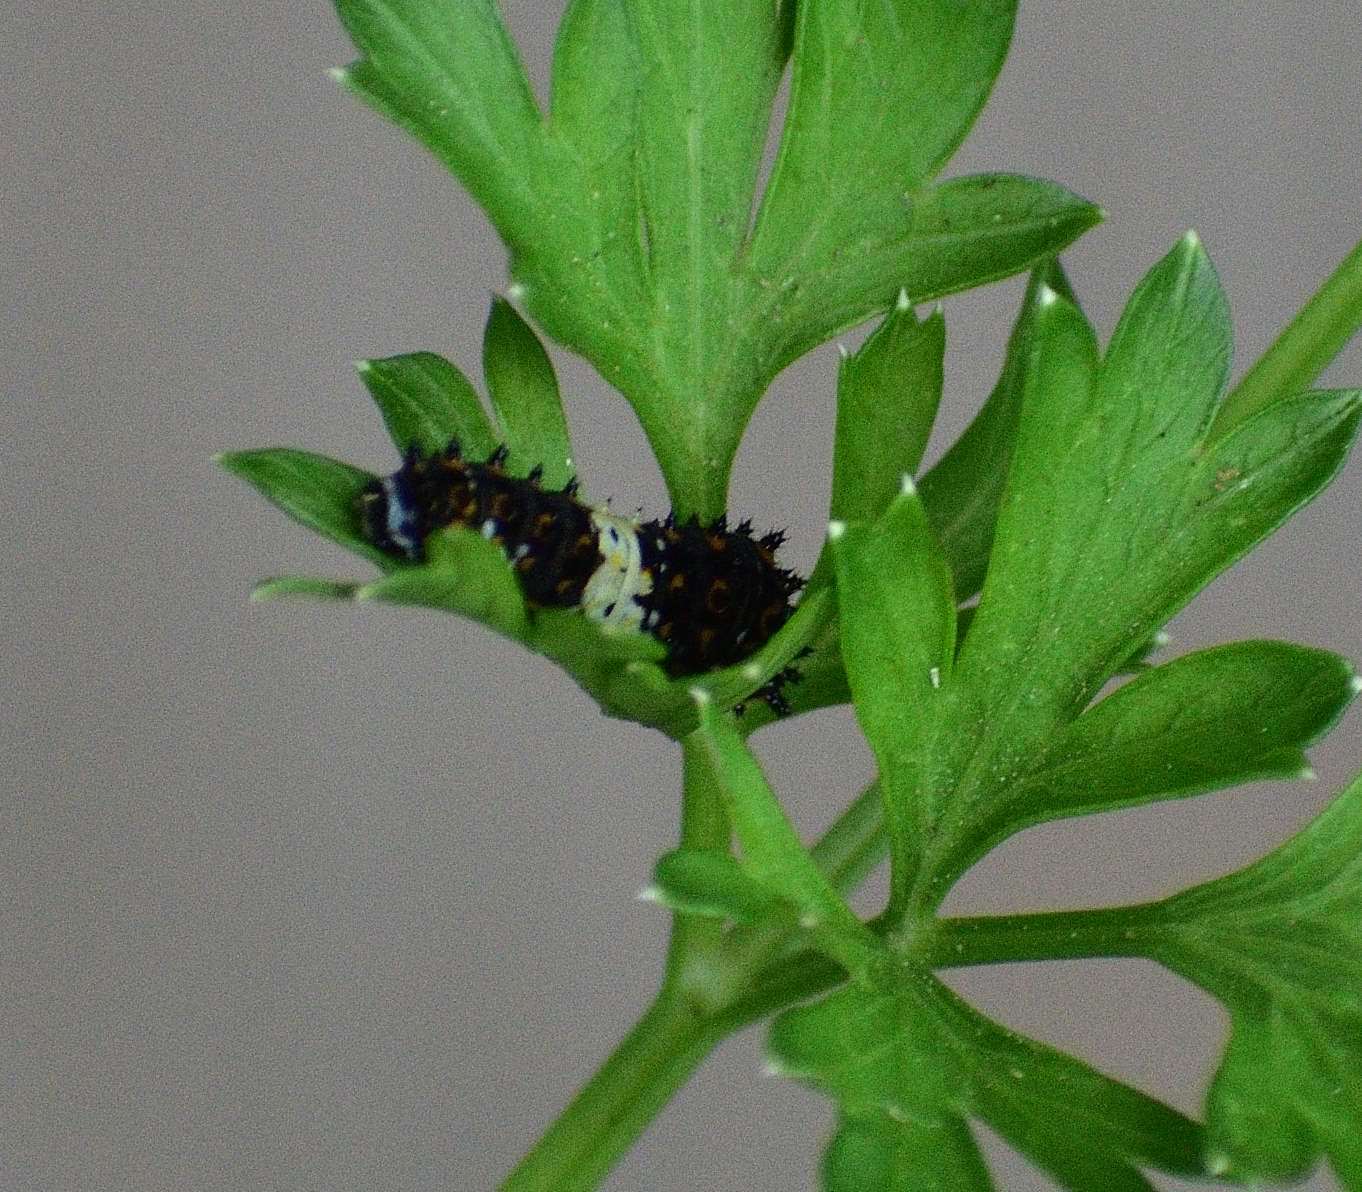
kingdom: Animalia
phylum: Arthropoda
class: Insecta
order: Lepidoptera
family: Papilionidae
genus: Papilio
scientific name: Papilio polyxenes
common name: Black swallowtail
